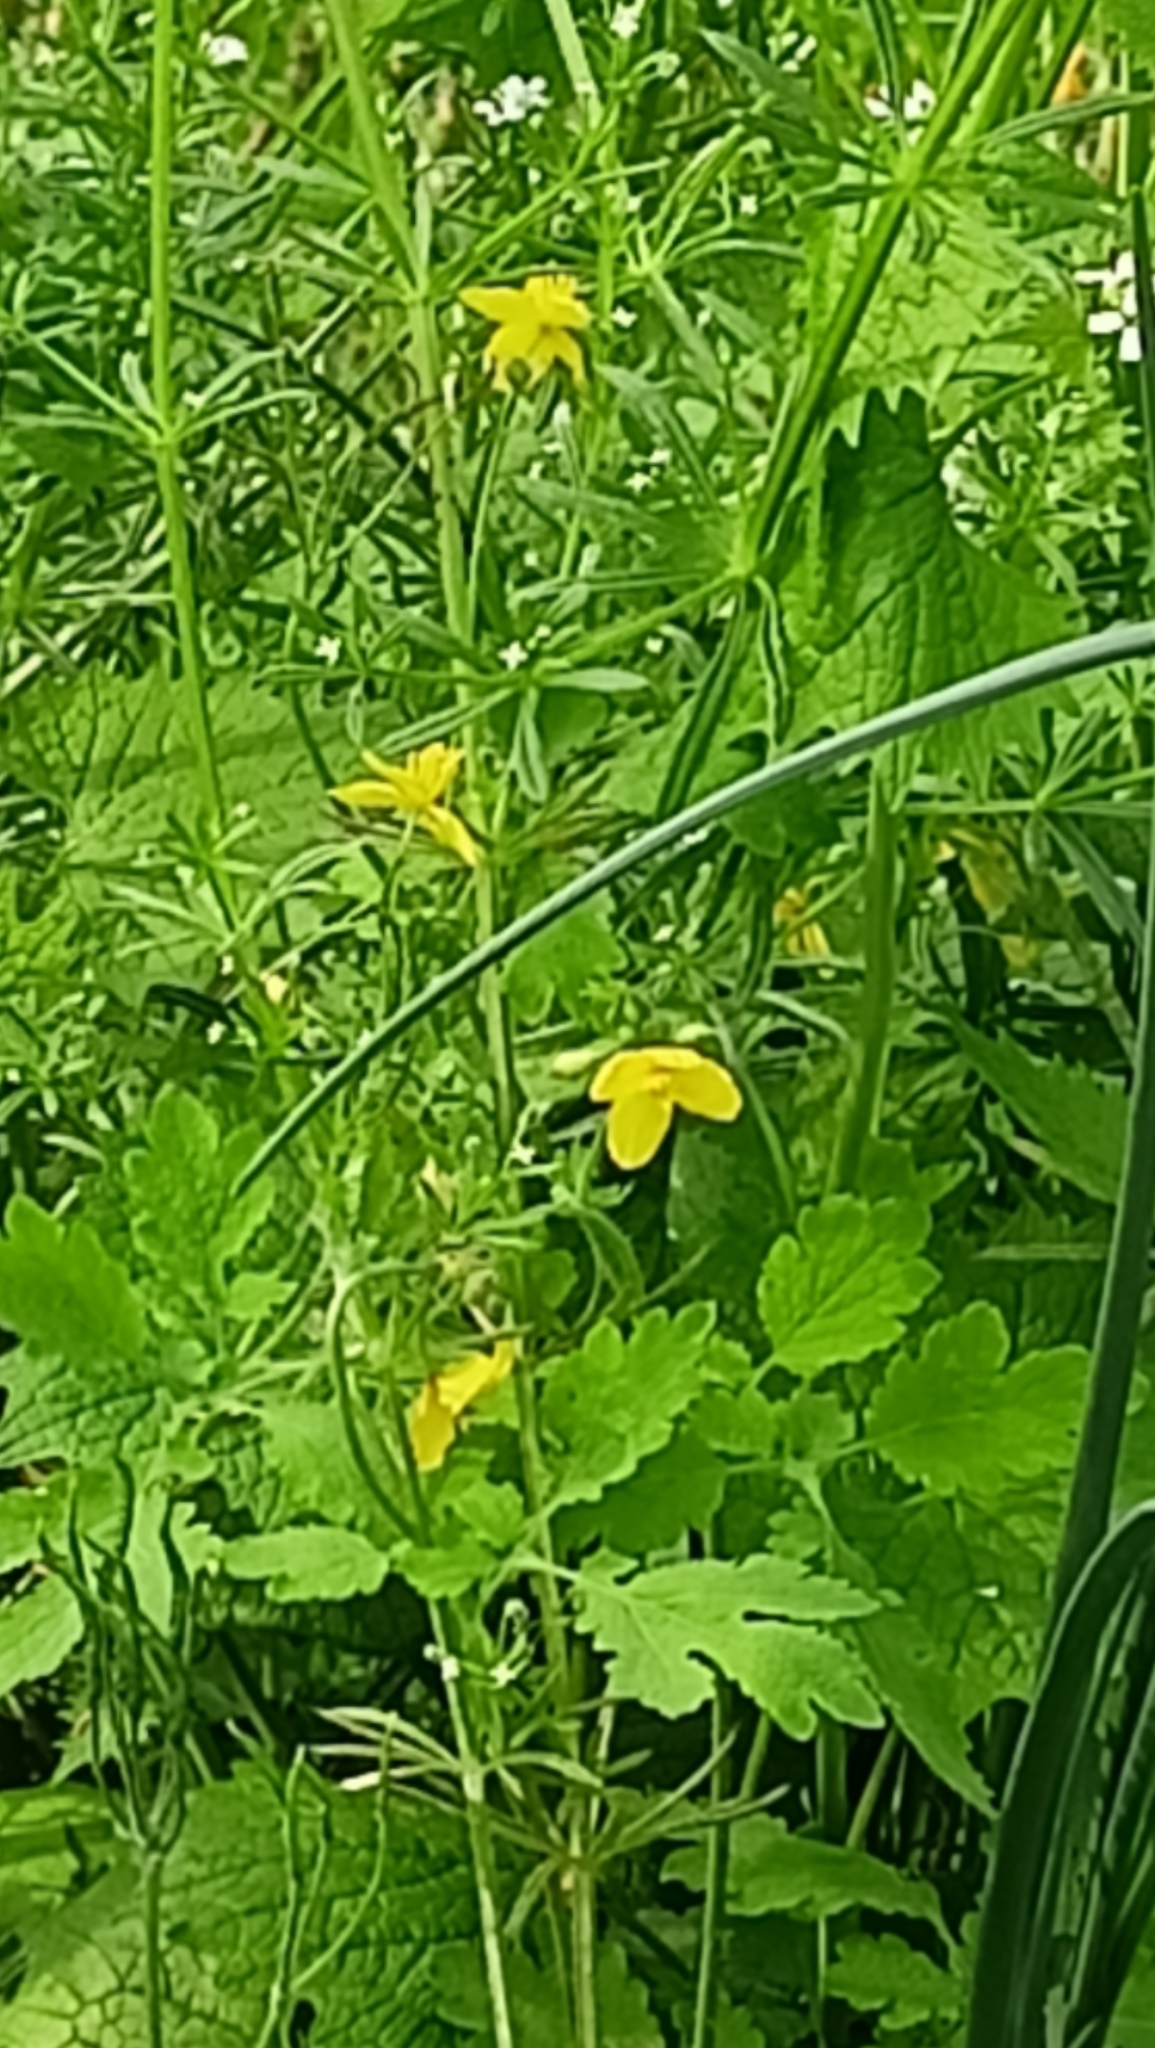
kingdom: Plantae
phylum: Tracheophyta
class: Magnoliopsida
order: Ranunculales
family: Papaveraceae
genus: Chelidonium
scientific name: Chelidonium majus
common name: Greater celandine
